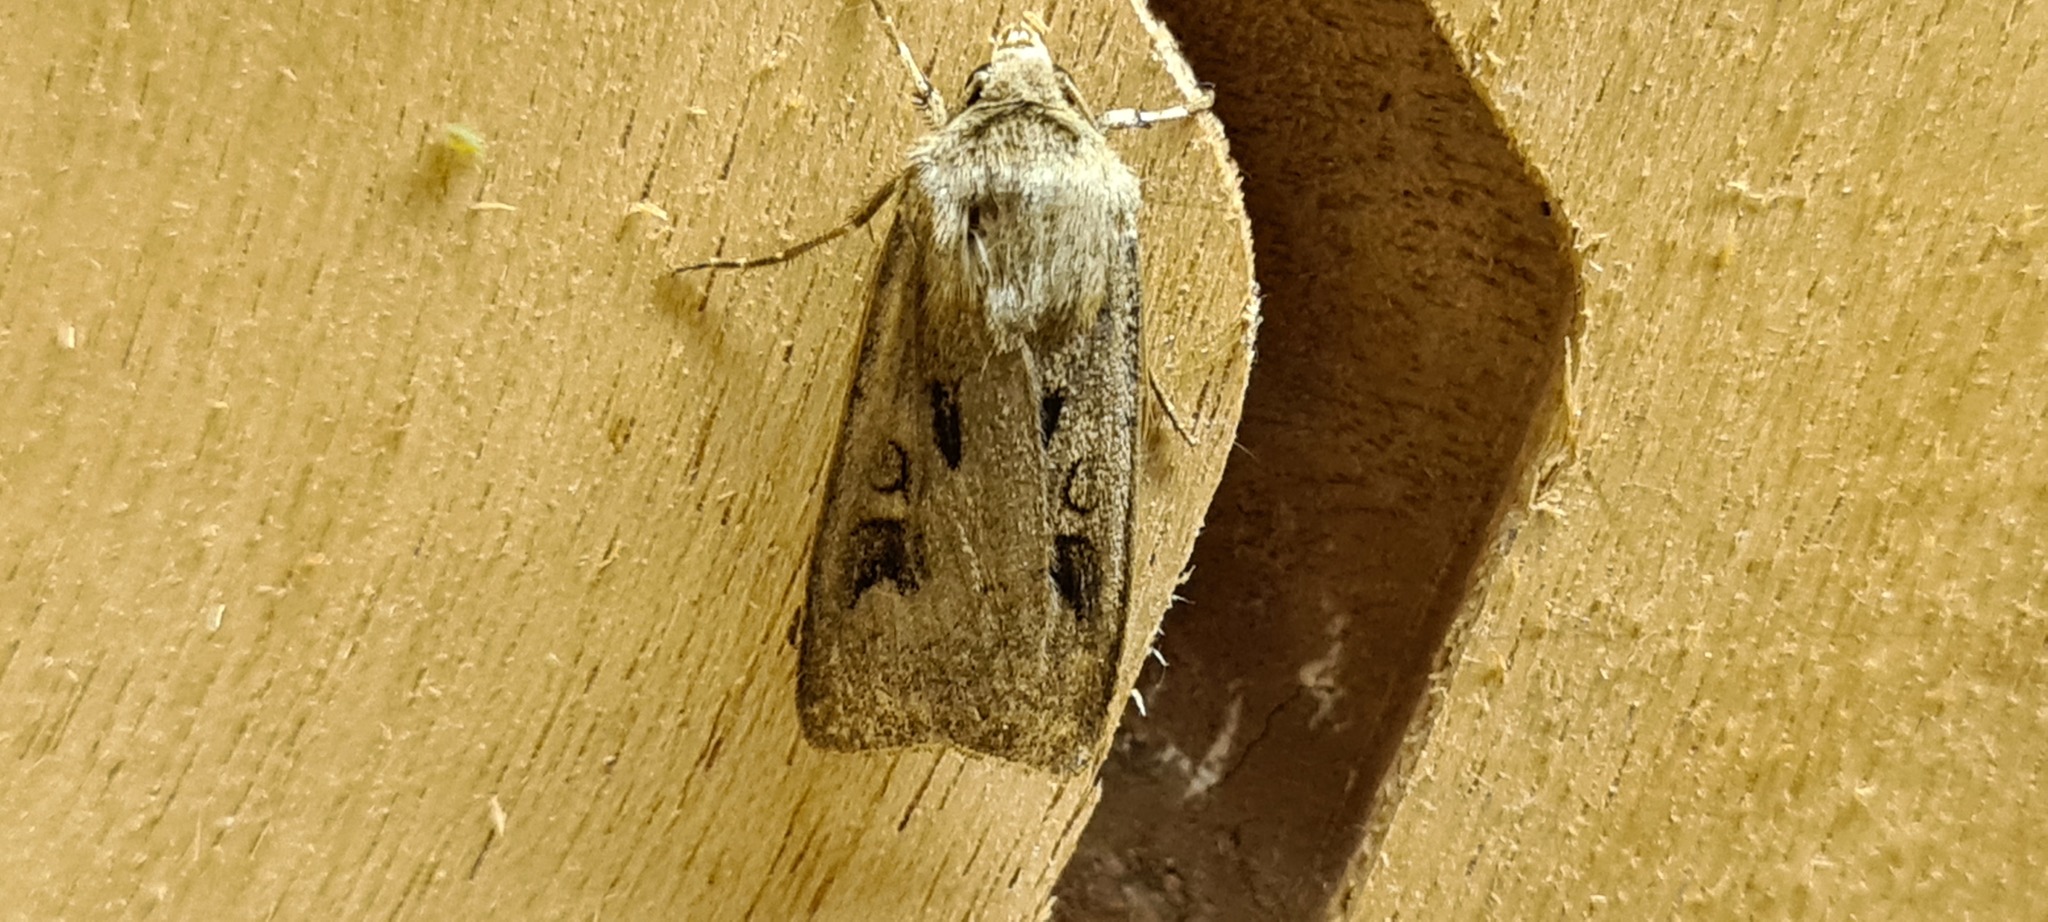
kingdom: Animalia
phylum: Arthropoda
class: Insecta
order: Lepidoptera
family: Noctuidae
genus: Agrotis
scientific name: Agrotis exclamationis
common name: Heart and dart
